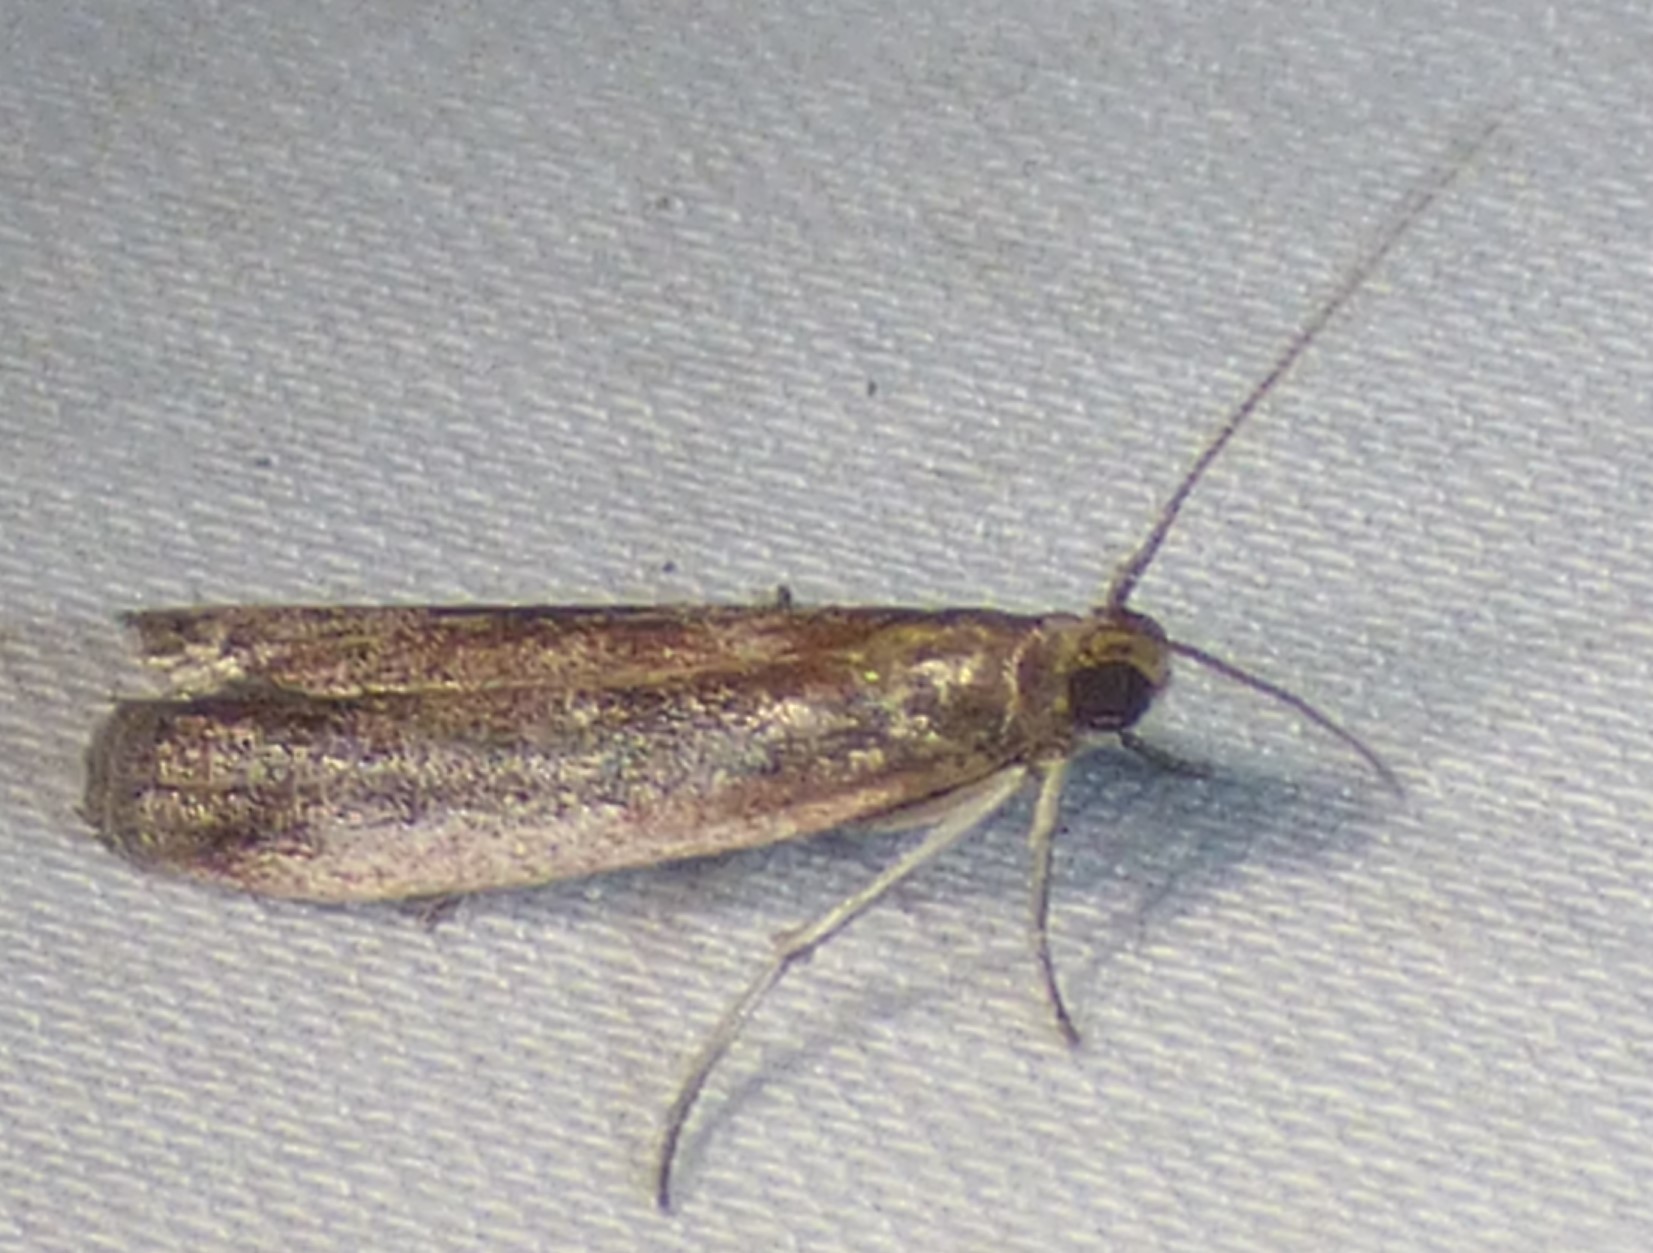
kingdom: Animalia
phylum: Arthropoda
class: Insecta
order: Lepidoptera
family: Pyralidae
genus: Atascosa
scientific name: Atascosa glareosella
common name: Rosy atascosa moth
